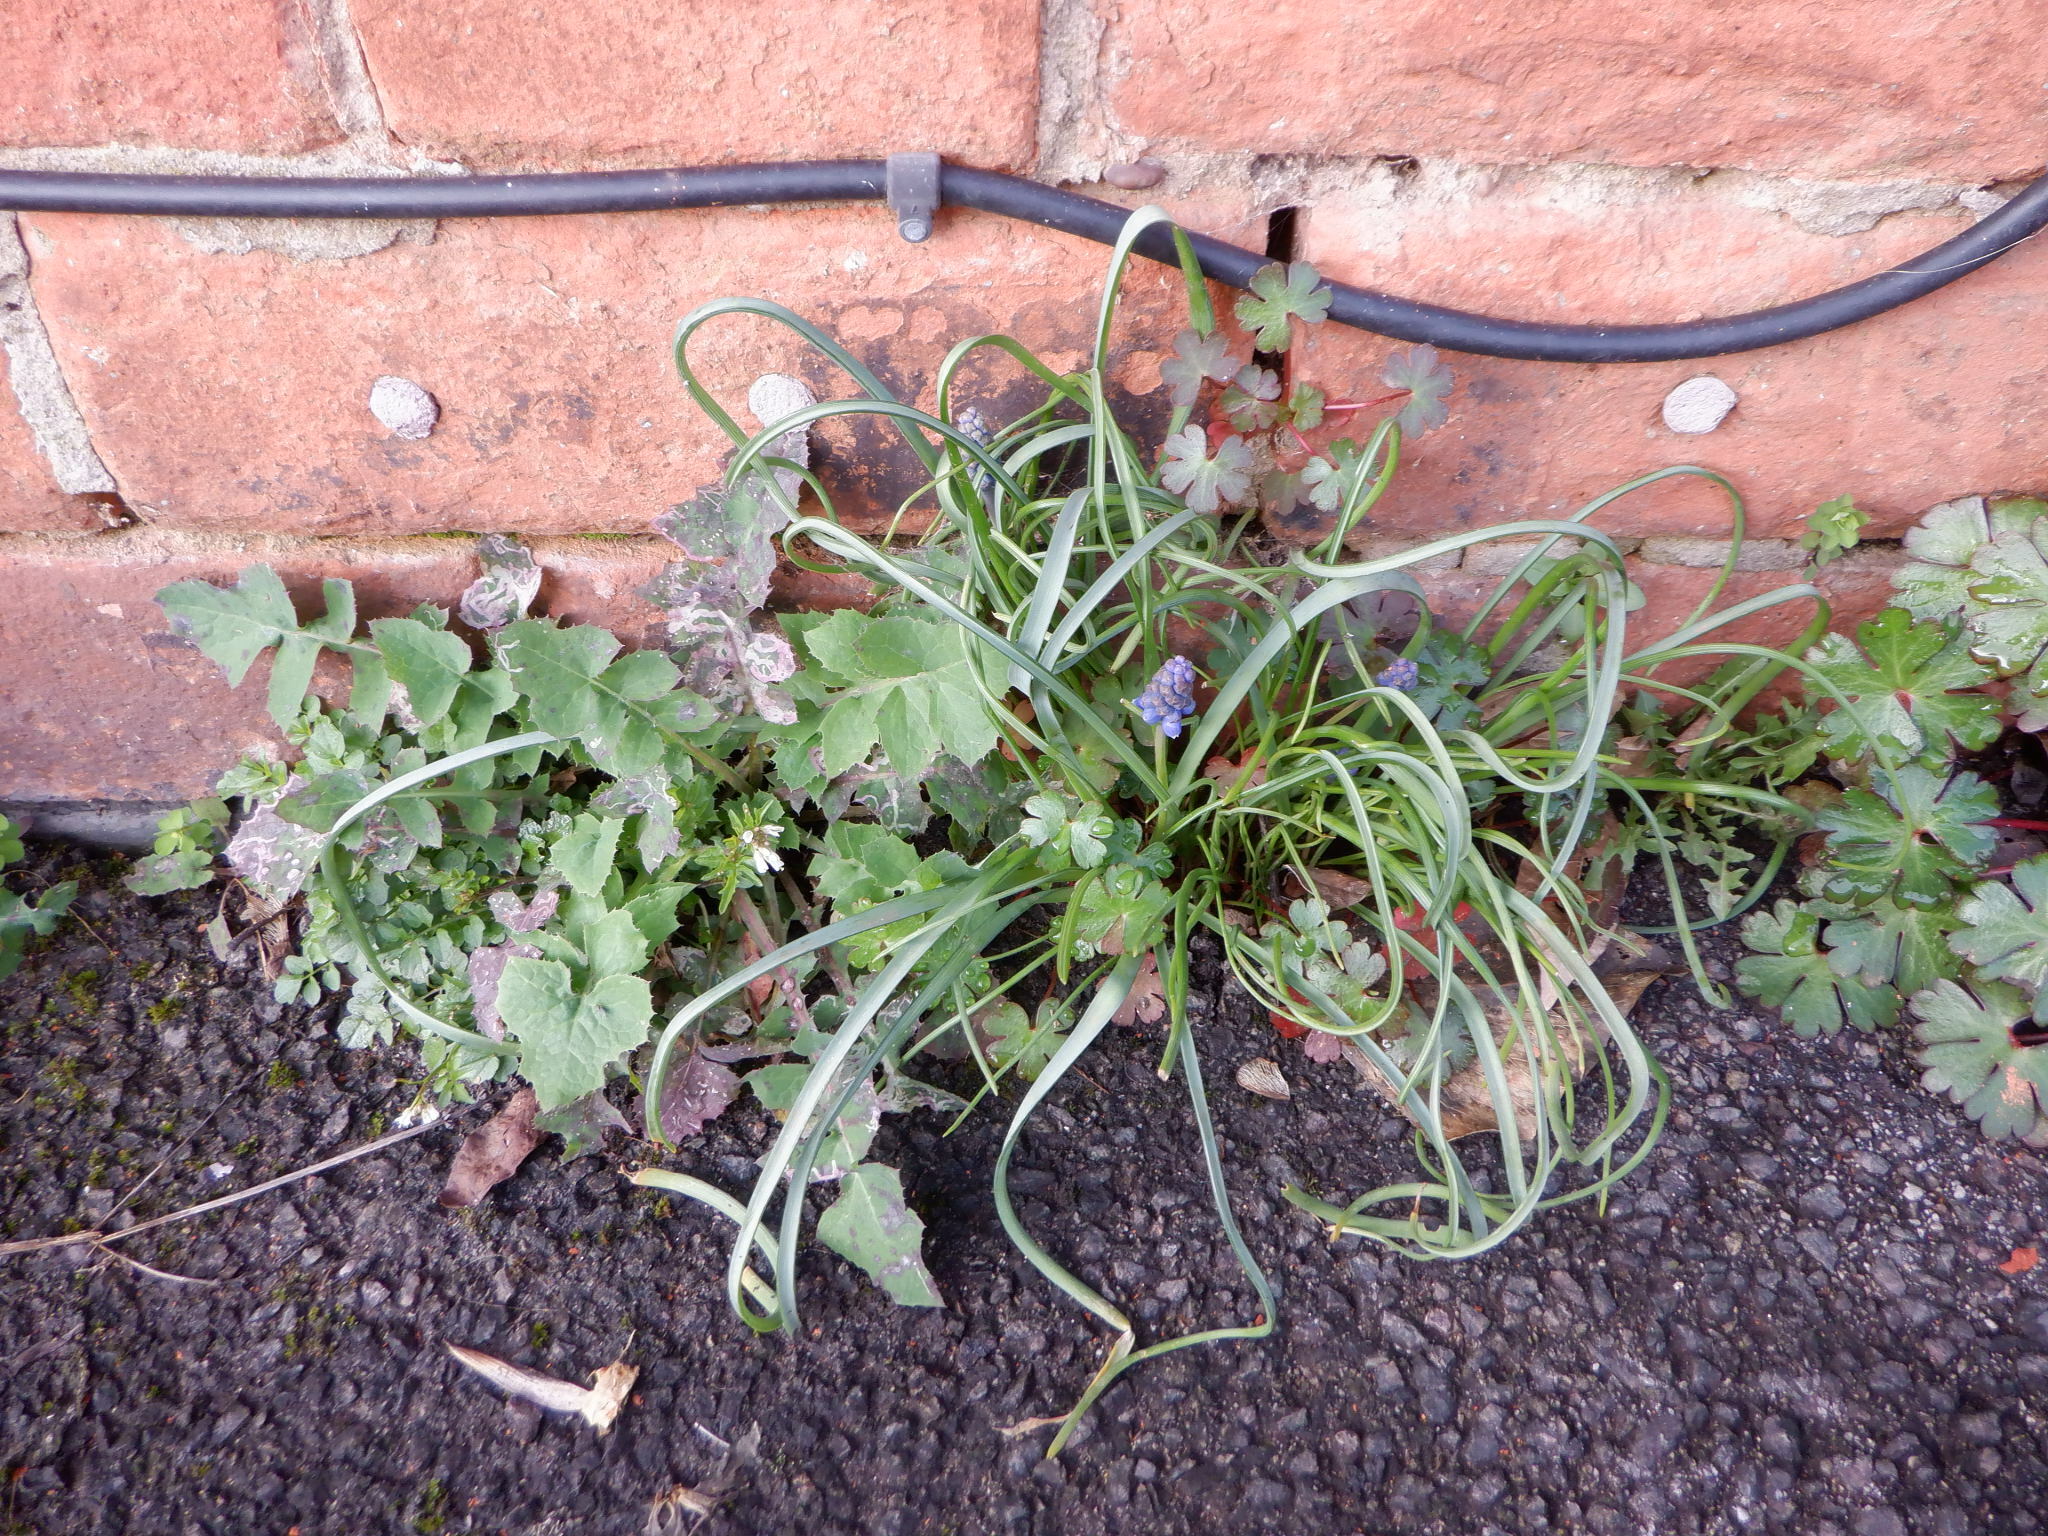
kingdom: Plantae
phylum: Tracheophyta
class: Liliopsida
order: Asparagales
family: Asparagaceae
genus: Muscari
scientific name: Muscari armeniacum
